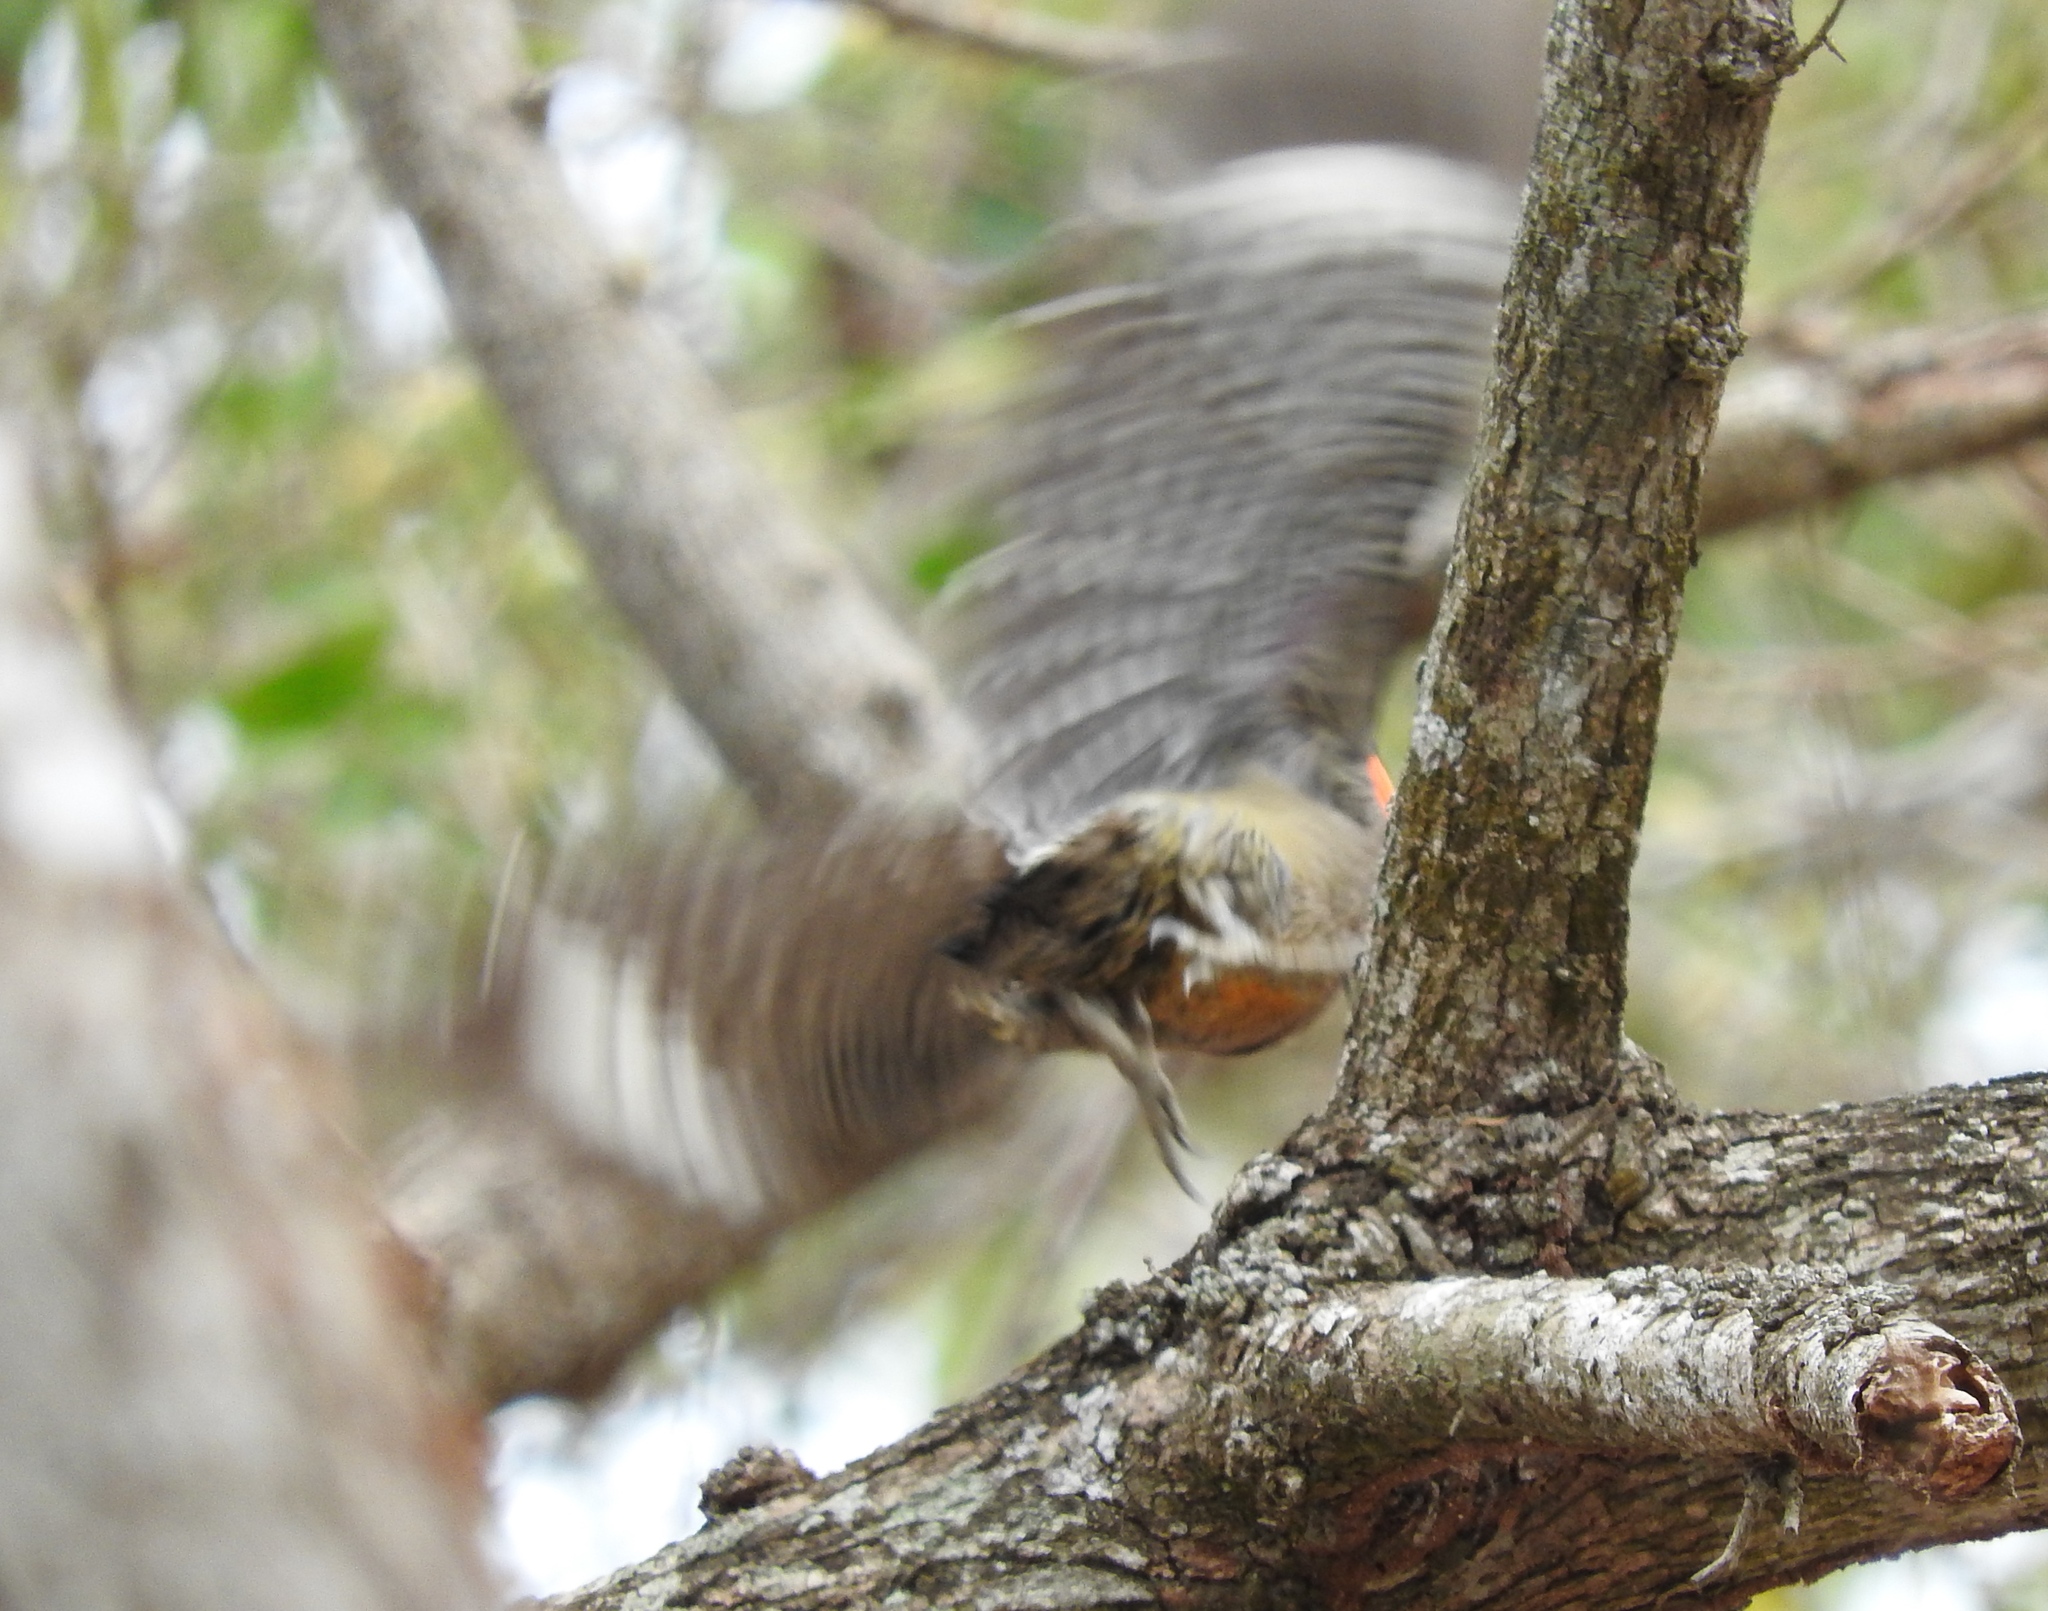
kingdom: Animalia
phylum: Chordata
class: Aves
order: Piciformes
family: Picidae
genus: Melanerpes
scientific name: Melanerpes chrysogenys
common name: Golden-cheeked woodpecker
